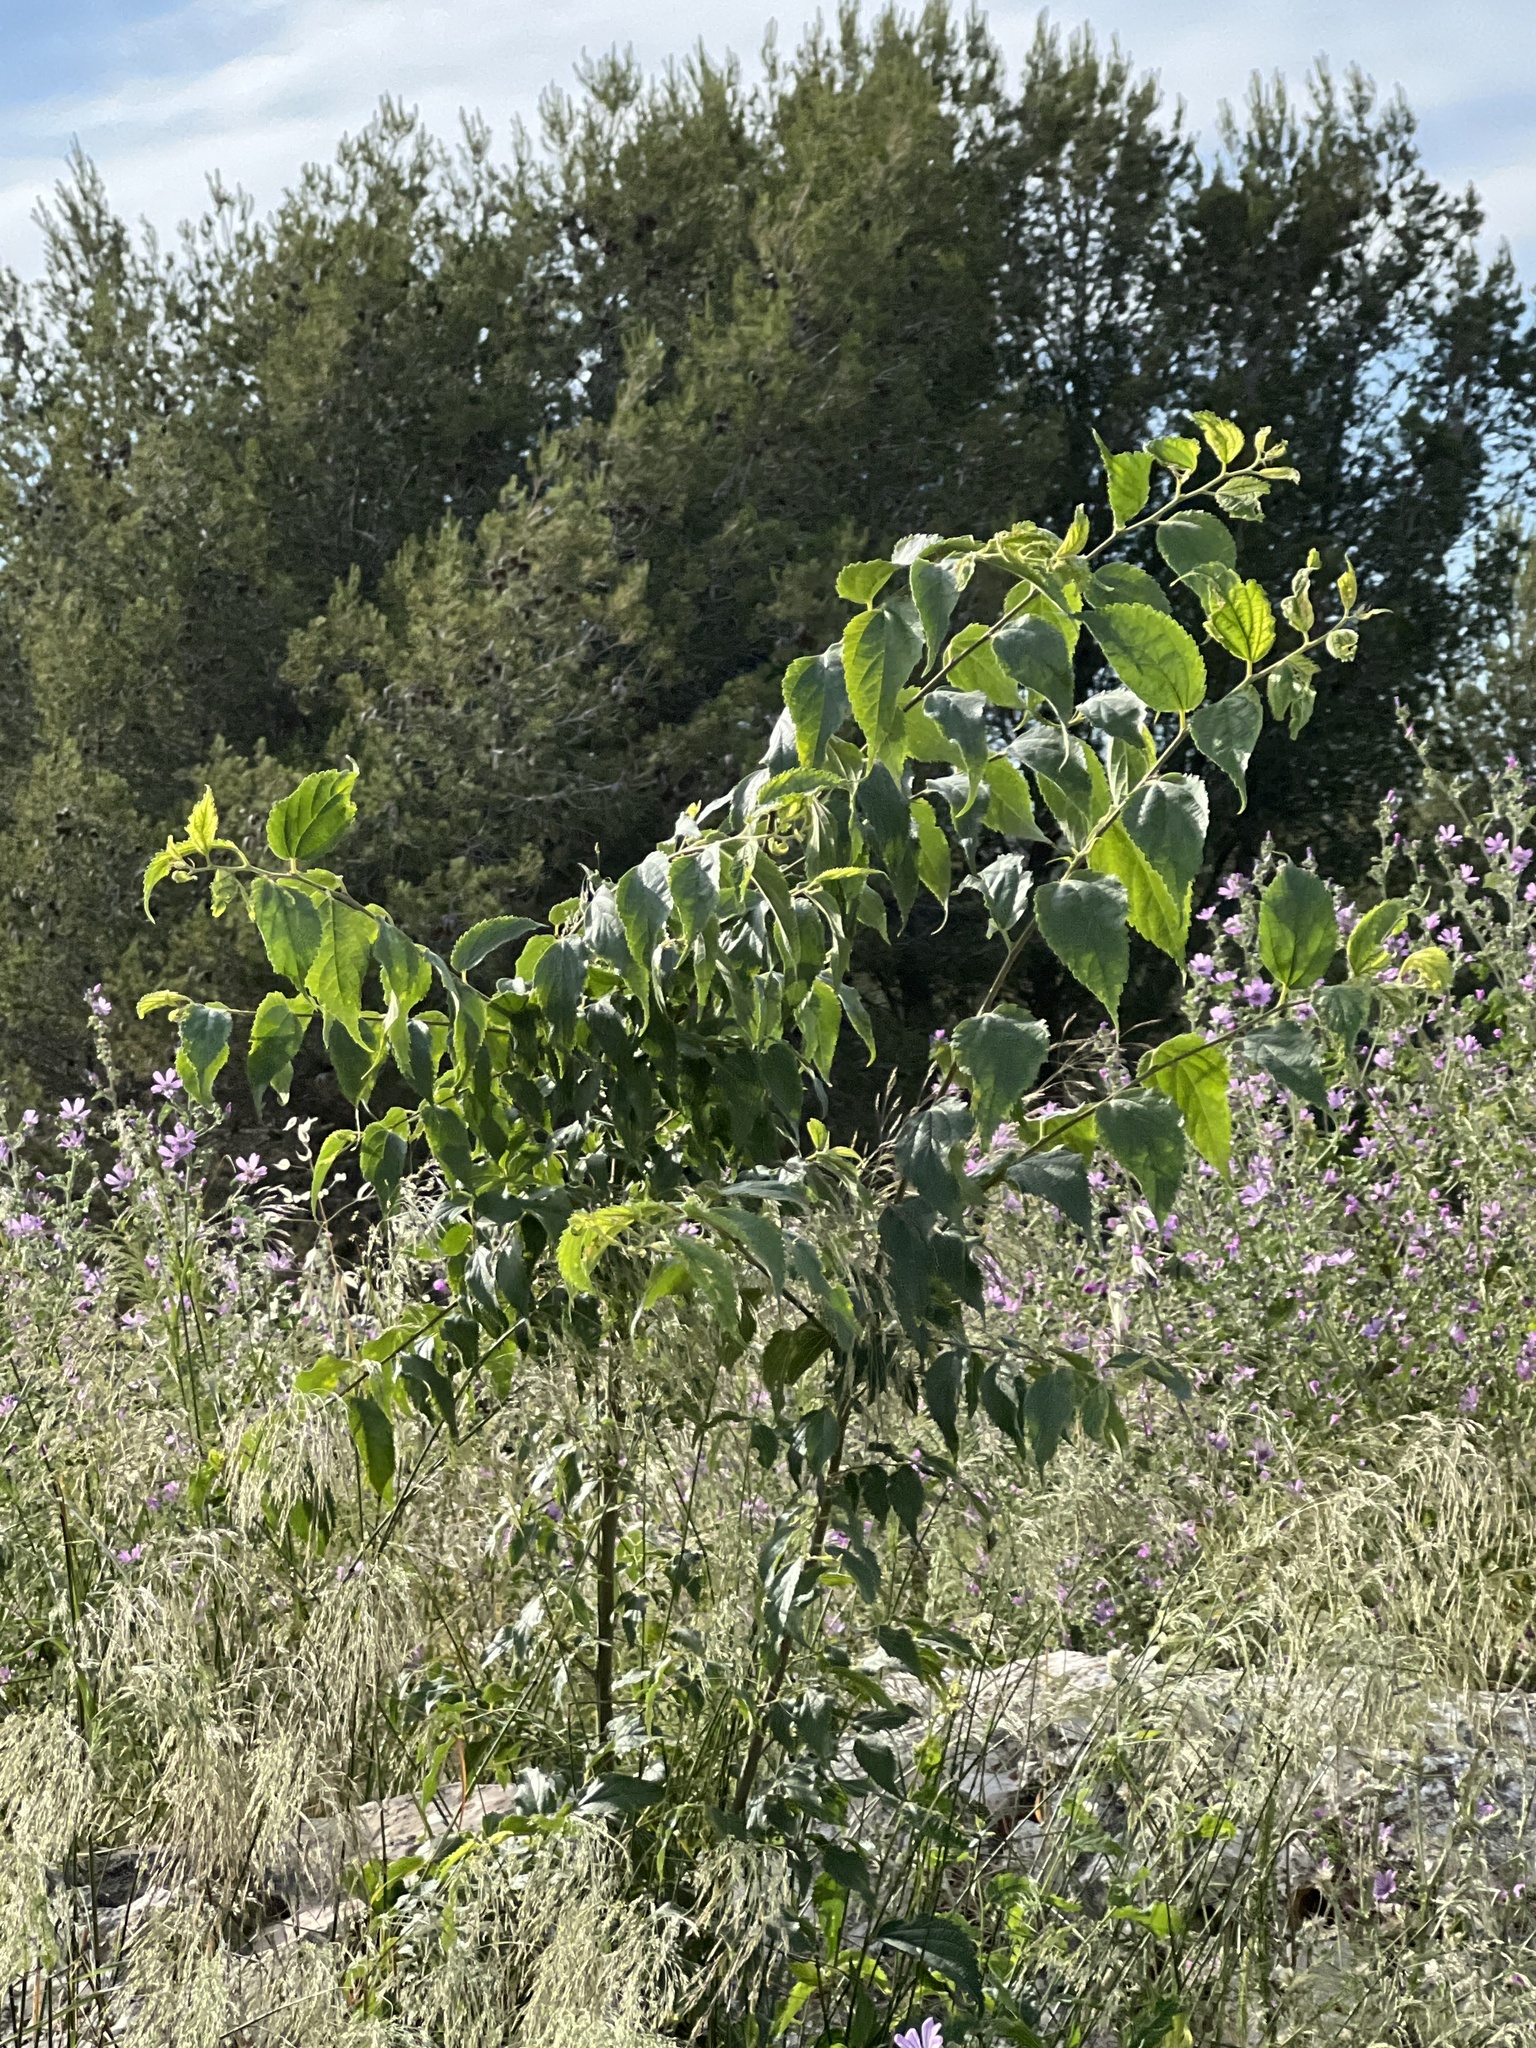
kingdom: Plantae
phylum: Tracheophyta
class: Magnoliopsida
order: Rosales
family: Cannabaceae
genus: Celtis
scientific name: Celtis australis
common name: European hackberry
